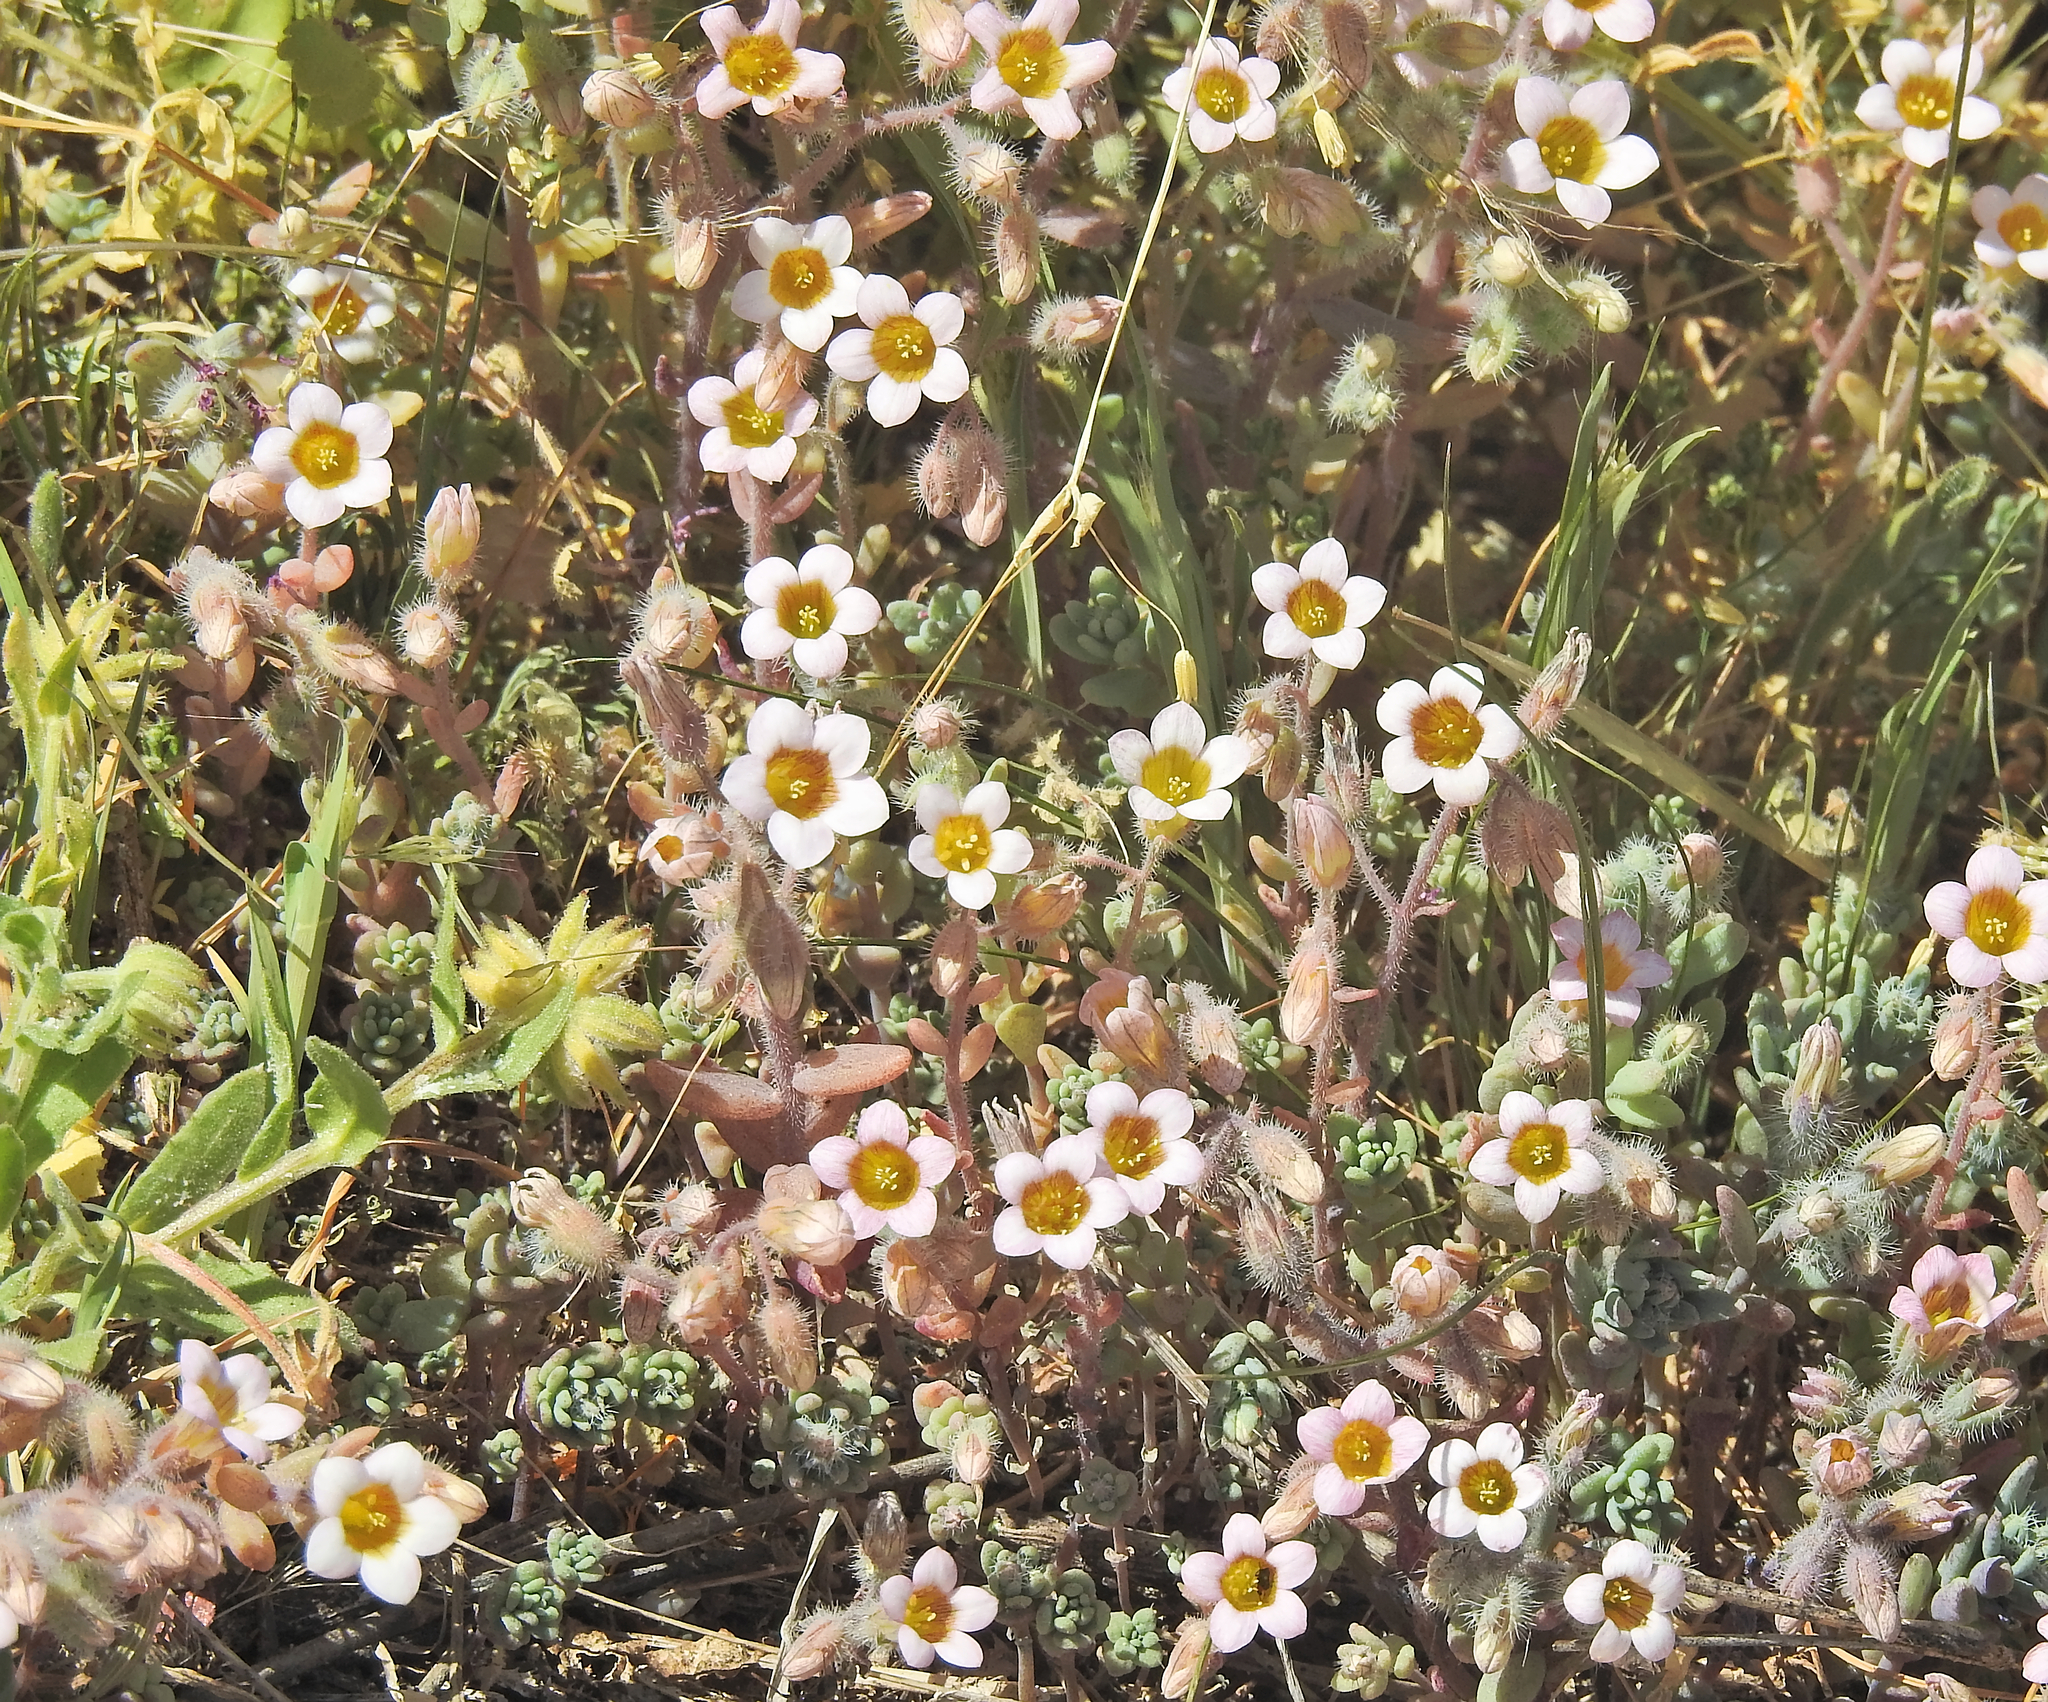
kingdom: Plantae
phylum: Tracheophyta
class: Magnoliopsida
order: Saxifragales
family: Crassulaceae
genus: Sedum
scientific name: Sedum mucizonia
